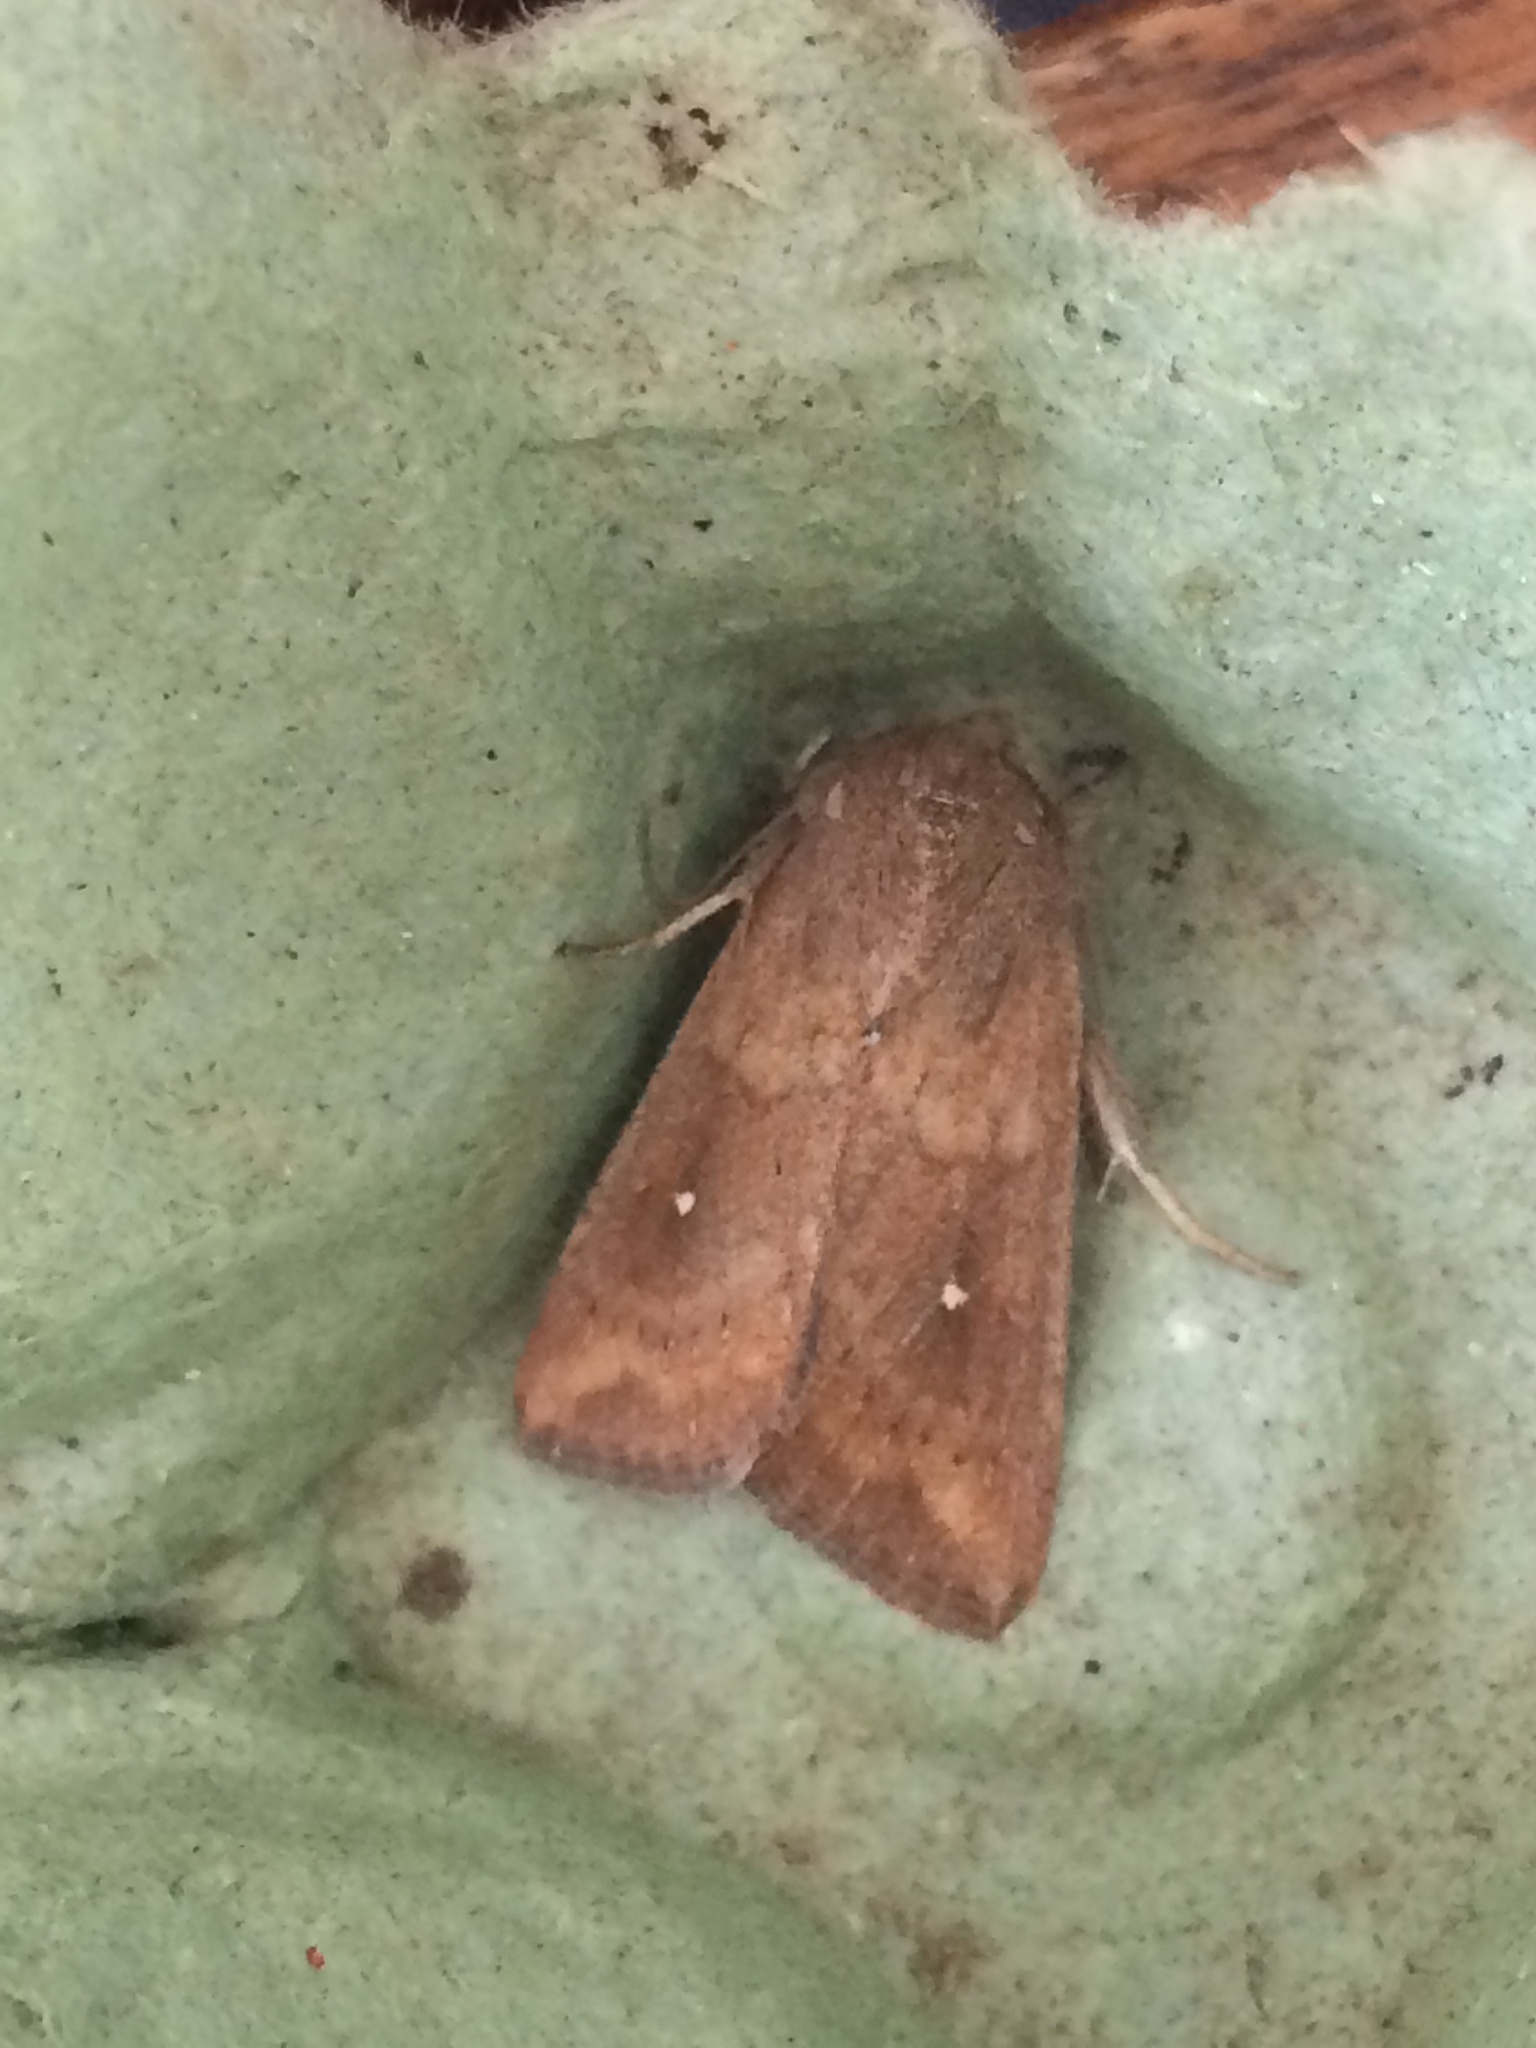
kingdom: Animalia
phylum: Arthropoda
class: Insecta
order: Lepidoptera
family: Noctuidae
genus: Mythimna
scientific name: Mythimna albipuncta
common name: White-point
